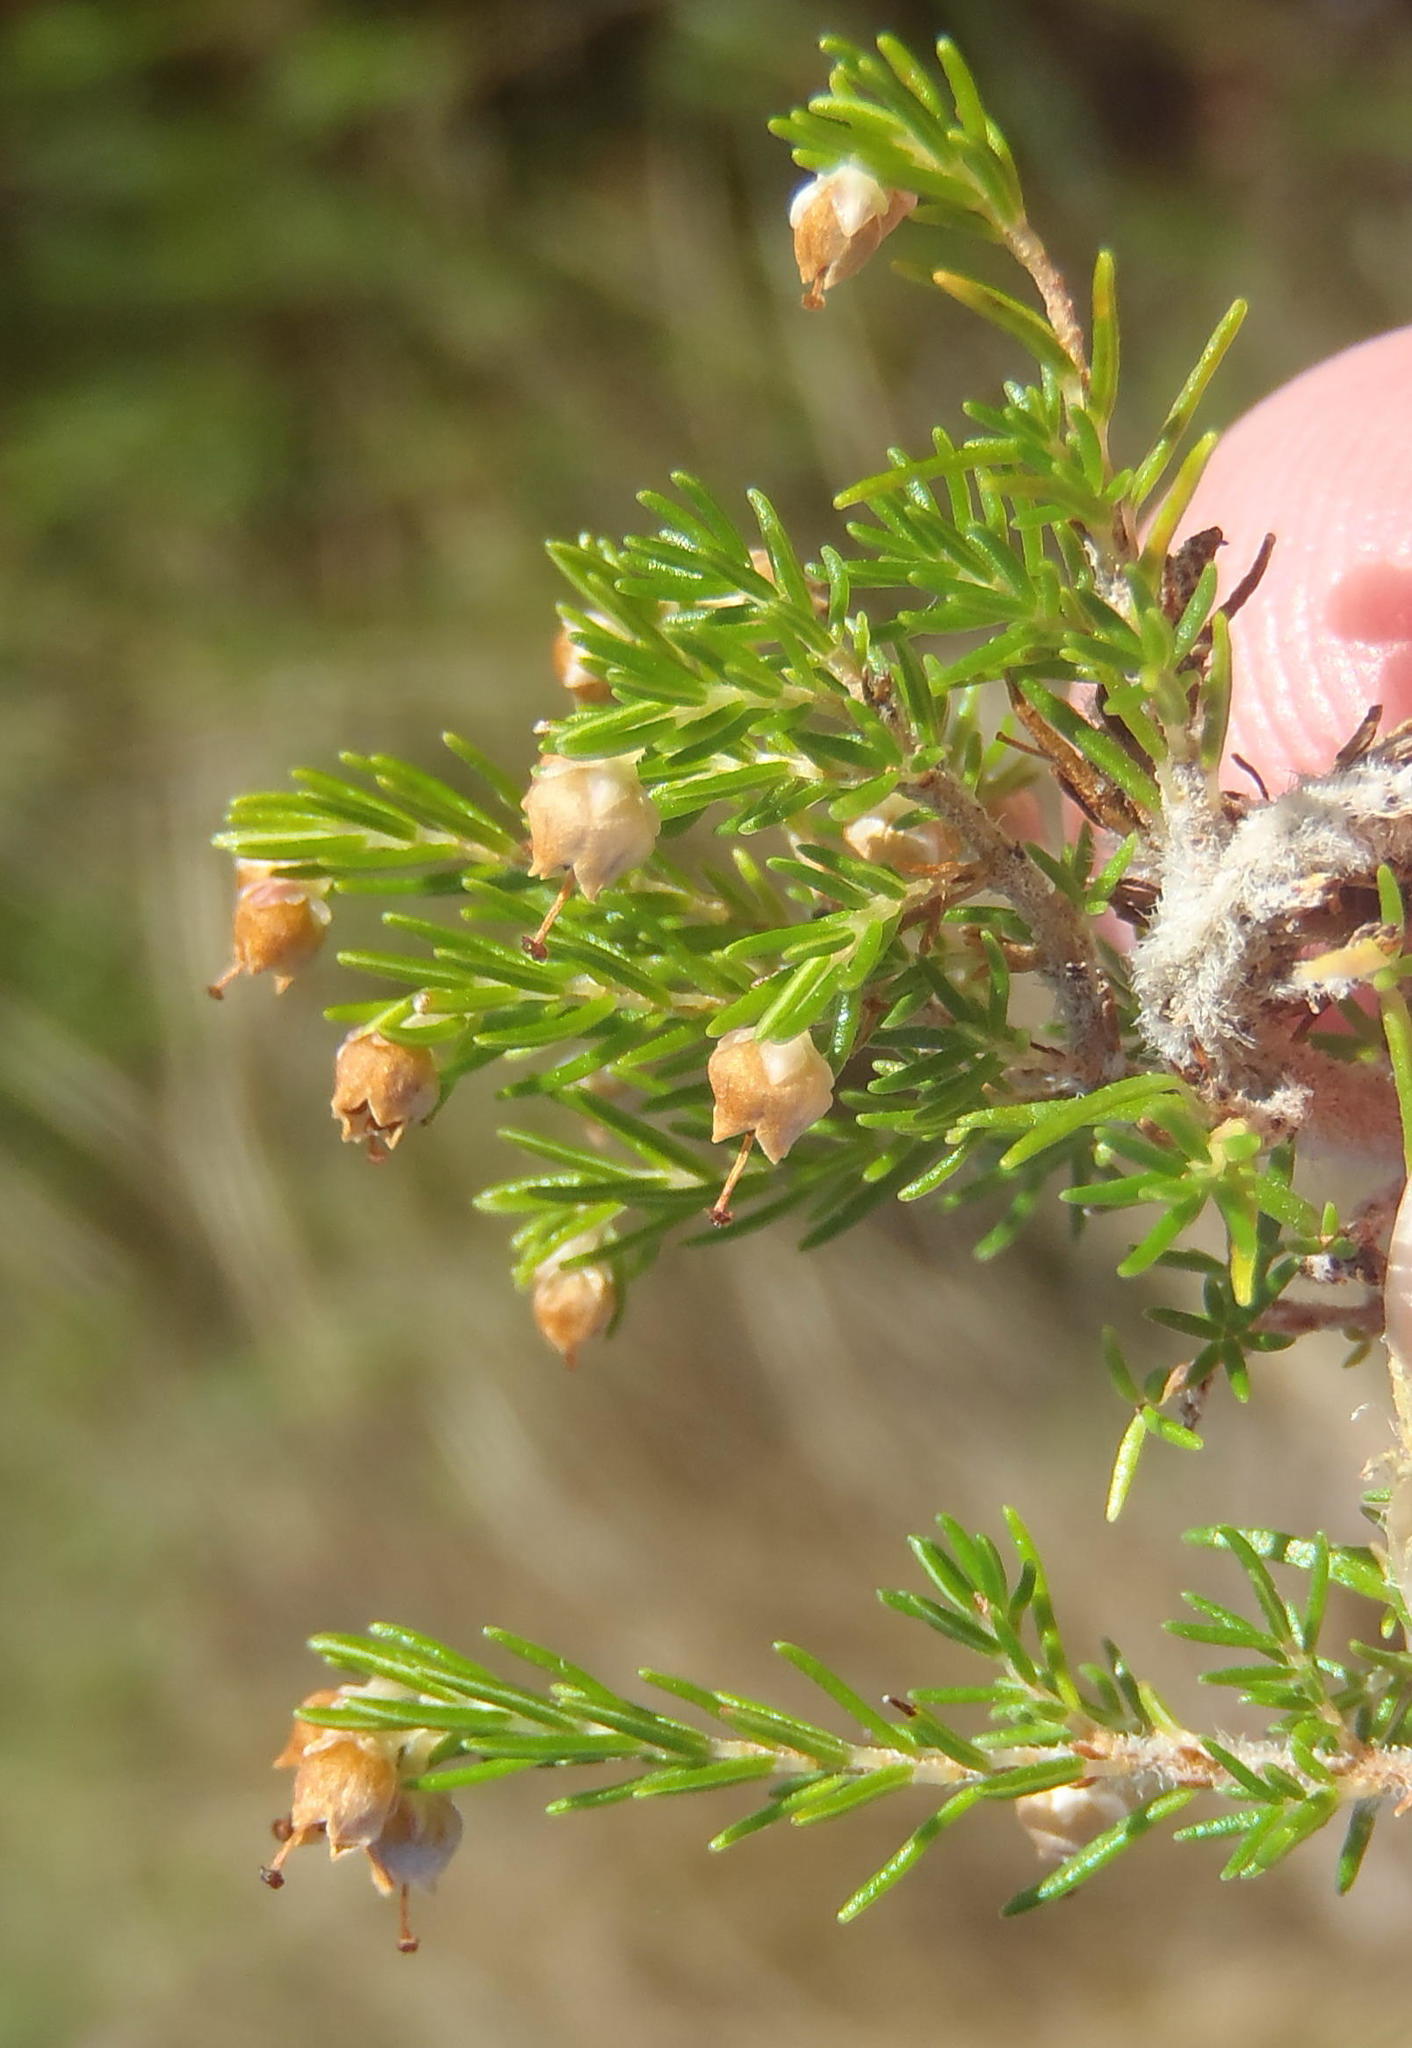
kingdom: Plantae
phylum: Tracheophyta
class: Magnoliopsida
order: Ericales
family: Ericaceae
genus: Erica
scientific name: Erica inconstans
